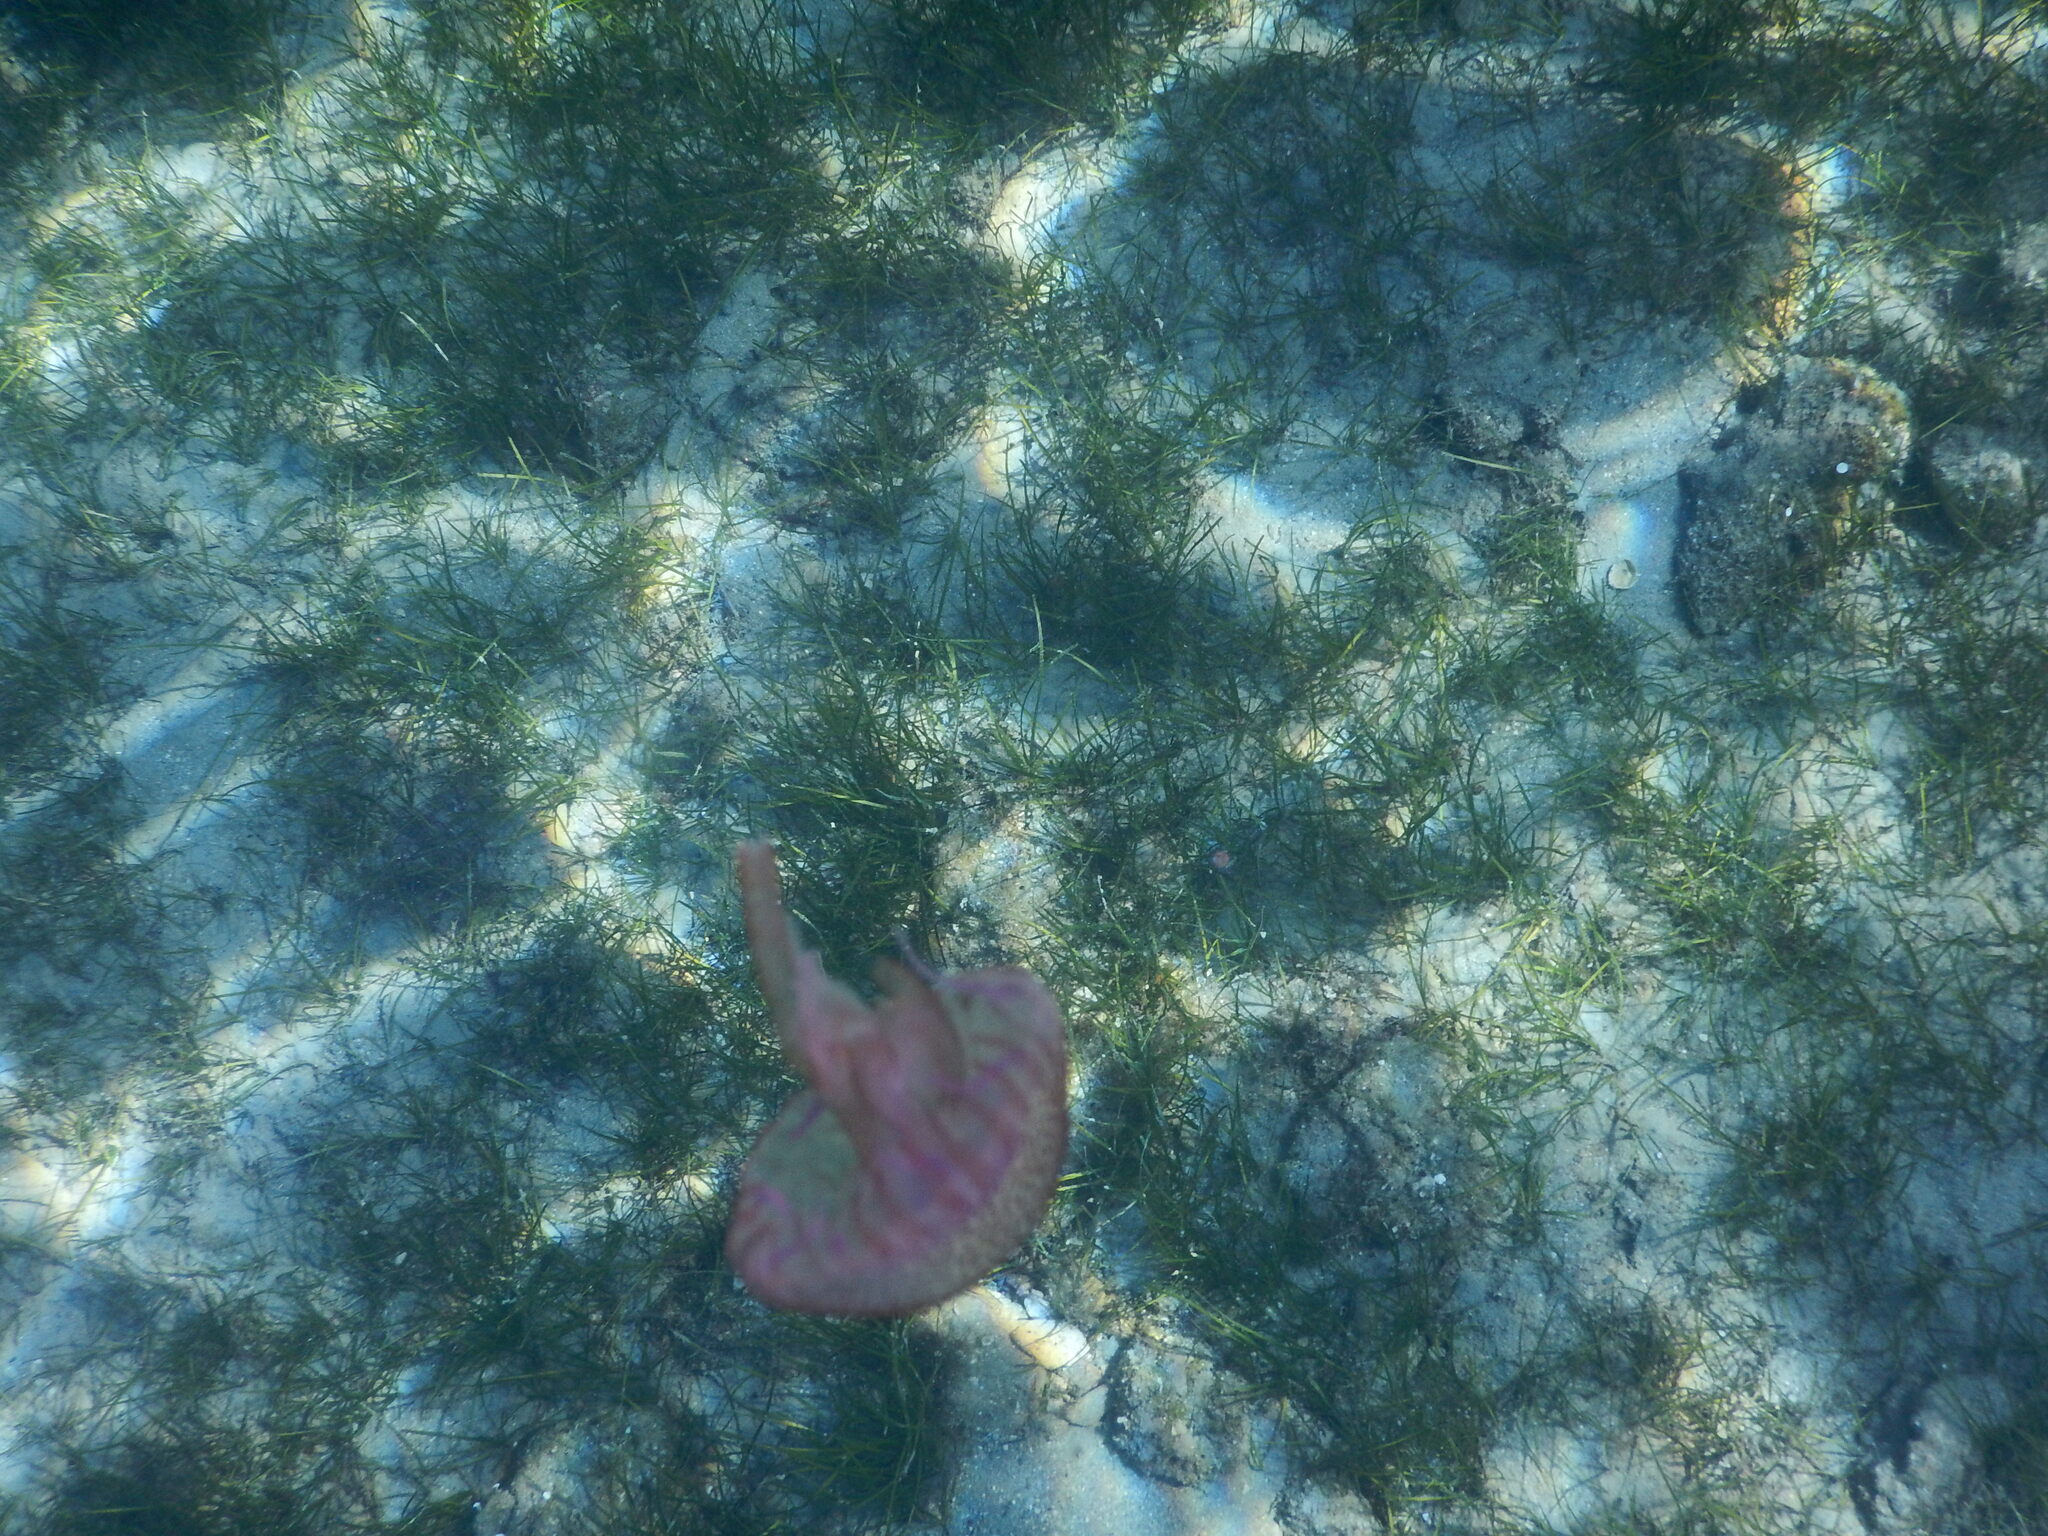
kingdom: Animalia
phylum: Cnidaria
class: Scyphozoa
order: Semaeostomeae
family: Pelagiidae
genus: Pelagia
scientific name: Pelagia noctiluca
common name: Mauve stinger
